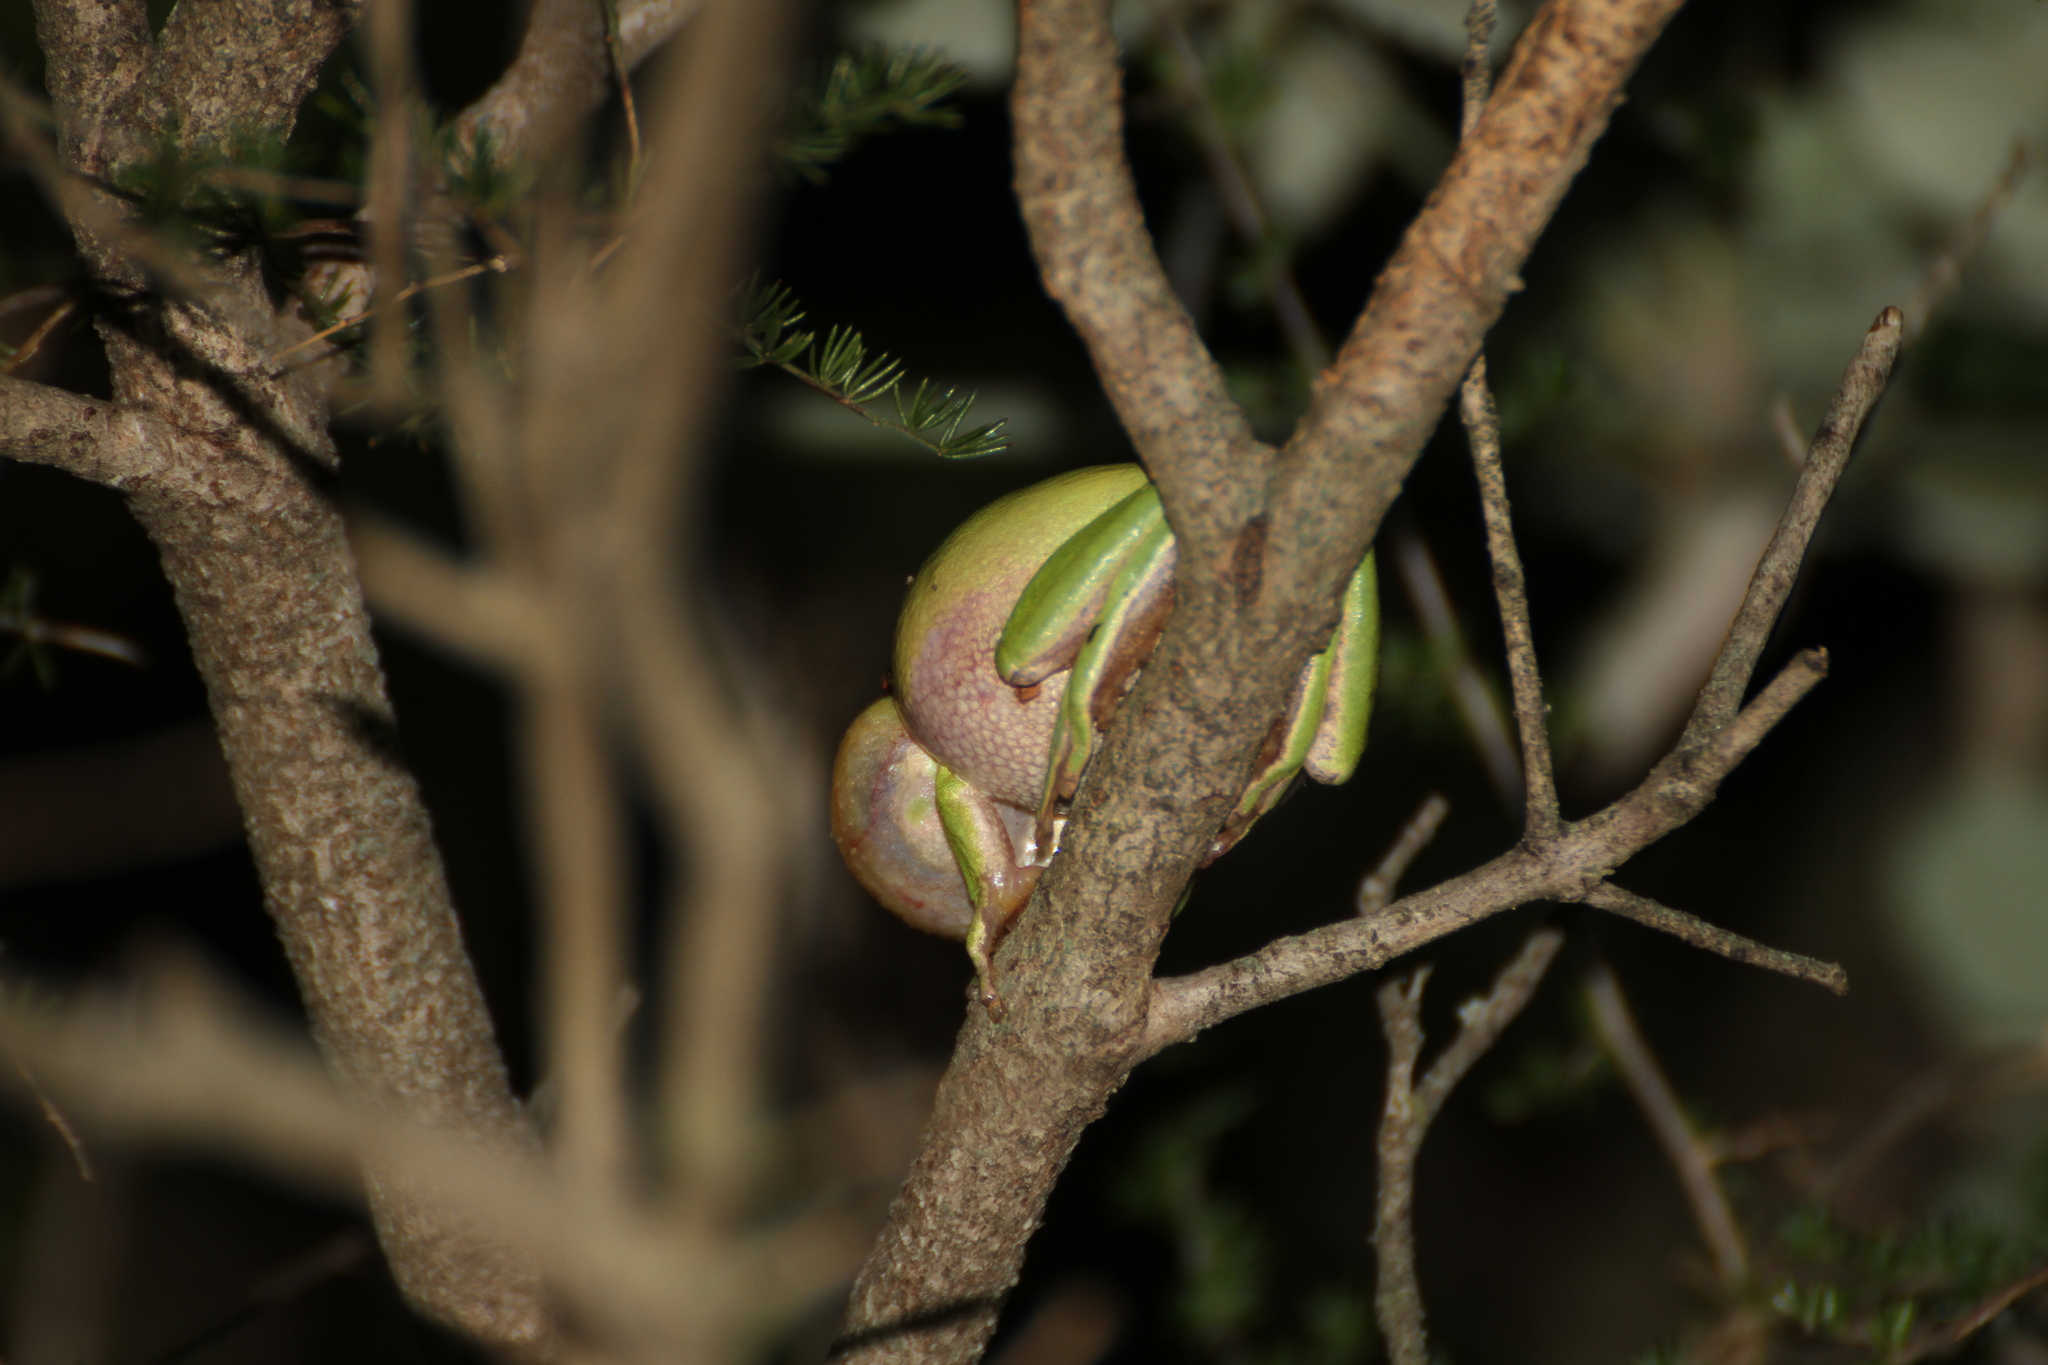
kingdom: Animalia
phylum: Chordata
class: Amphibia
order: Anura
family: Hylidae
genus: Hyla
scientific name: Hyla meridionalis
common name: Stripeless tree frog
